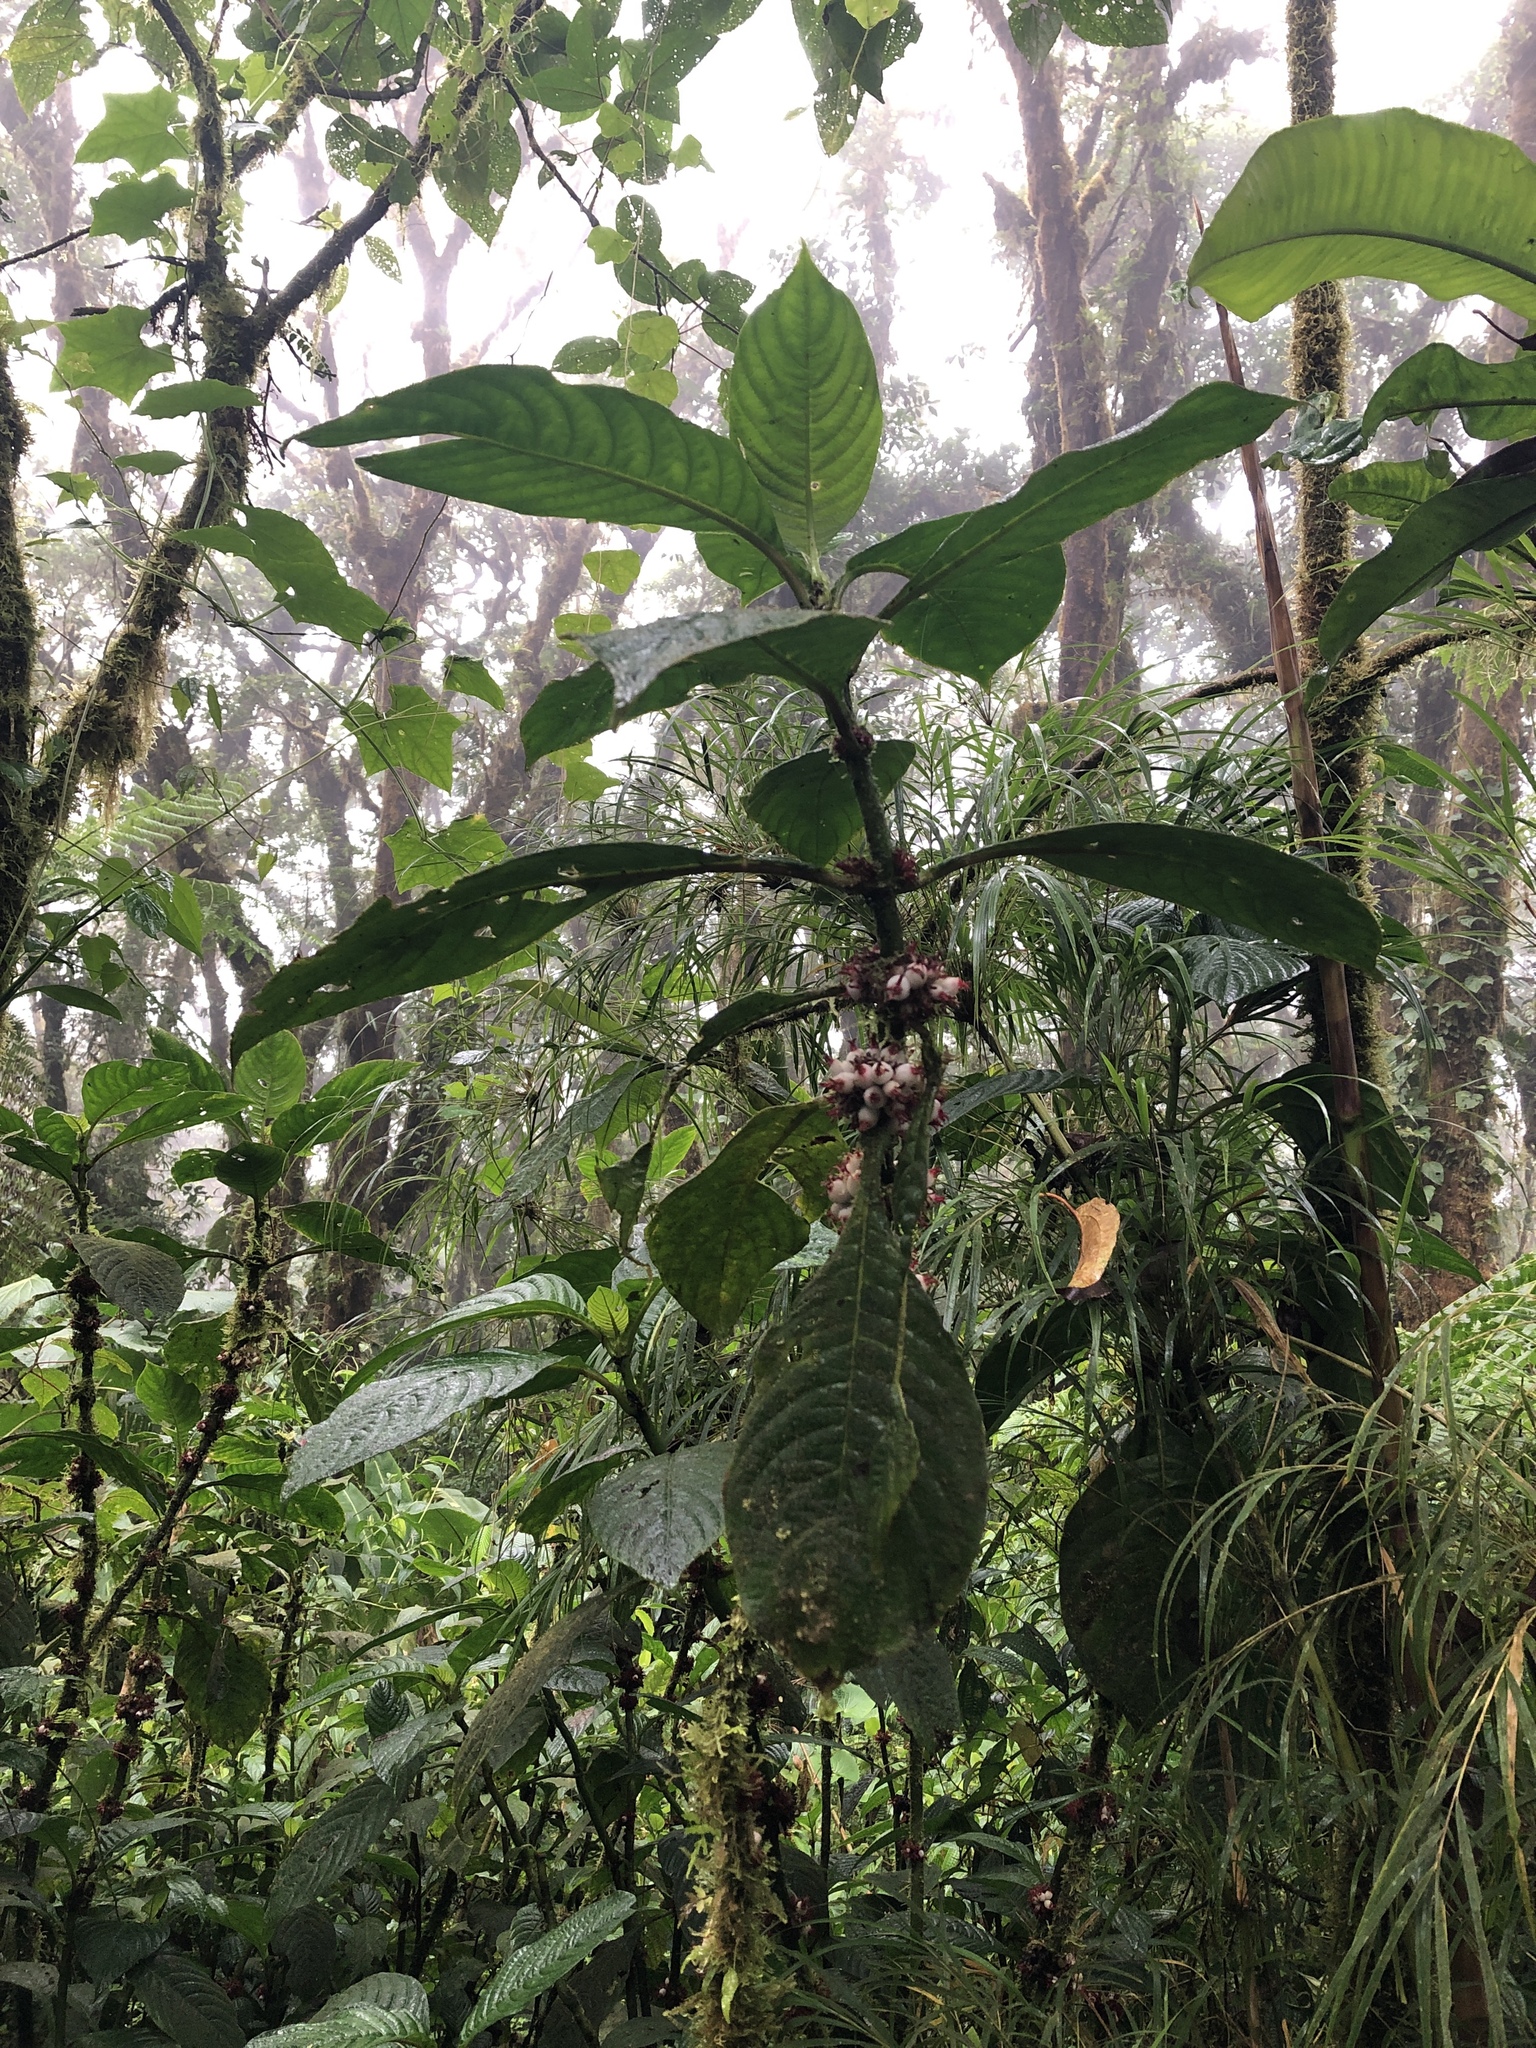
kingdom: Plantae
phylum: Tracheophyta
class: Magnoliopsida
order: Gentianales
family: Rubiaceae
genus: Hoffmannia
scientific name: Hoffmannia congesta
